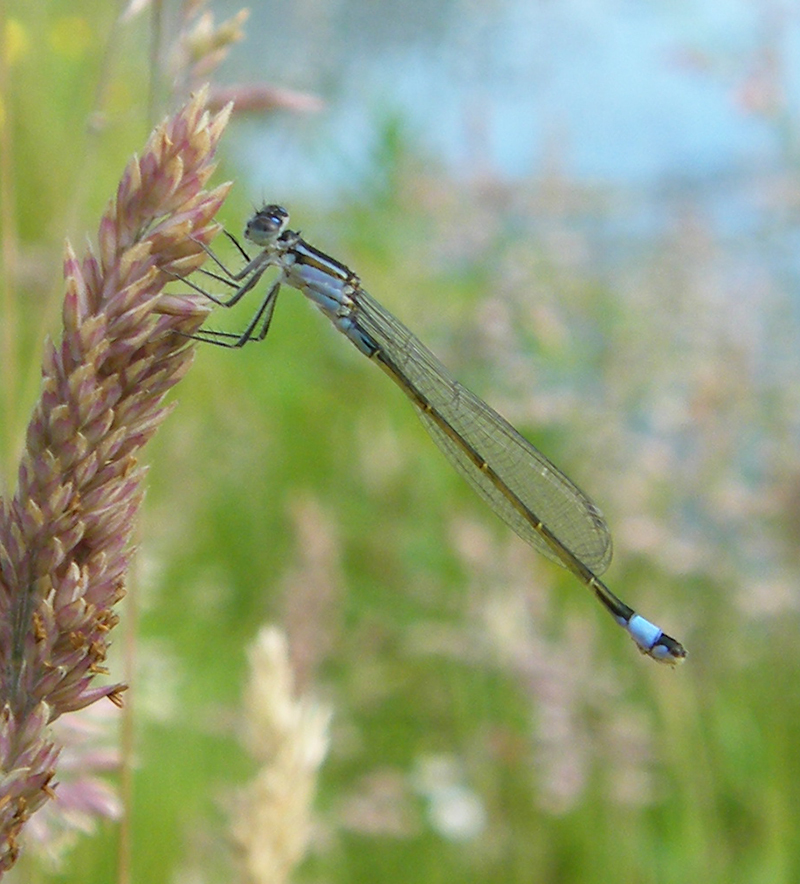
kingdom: Animalia
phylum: Arthropoda
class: Insecta
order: Odonata
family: Coenagrionidae
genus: Ischnura
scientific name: Ischnura elegans
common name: Blue-tailed damselfly
